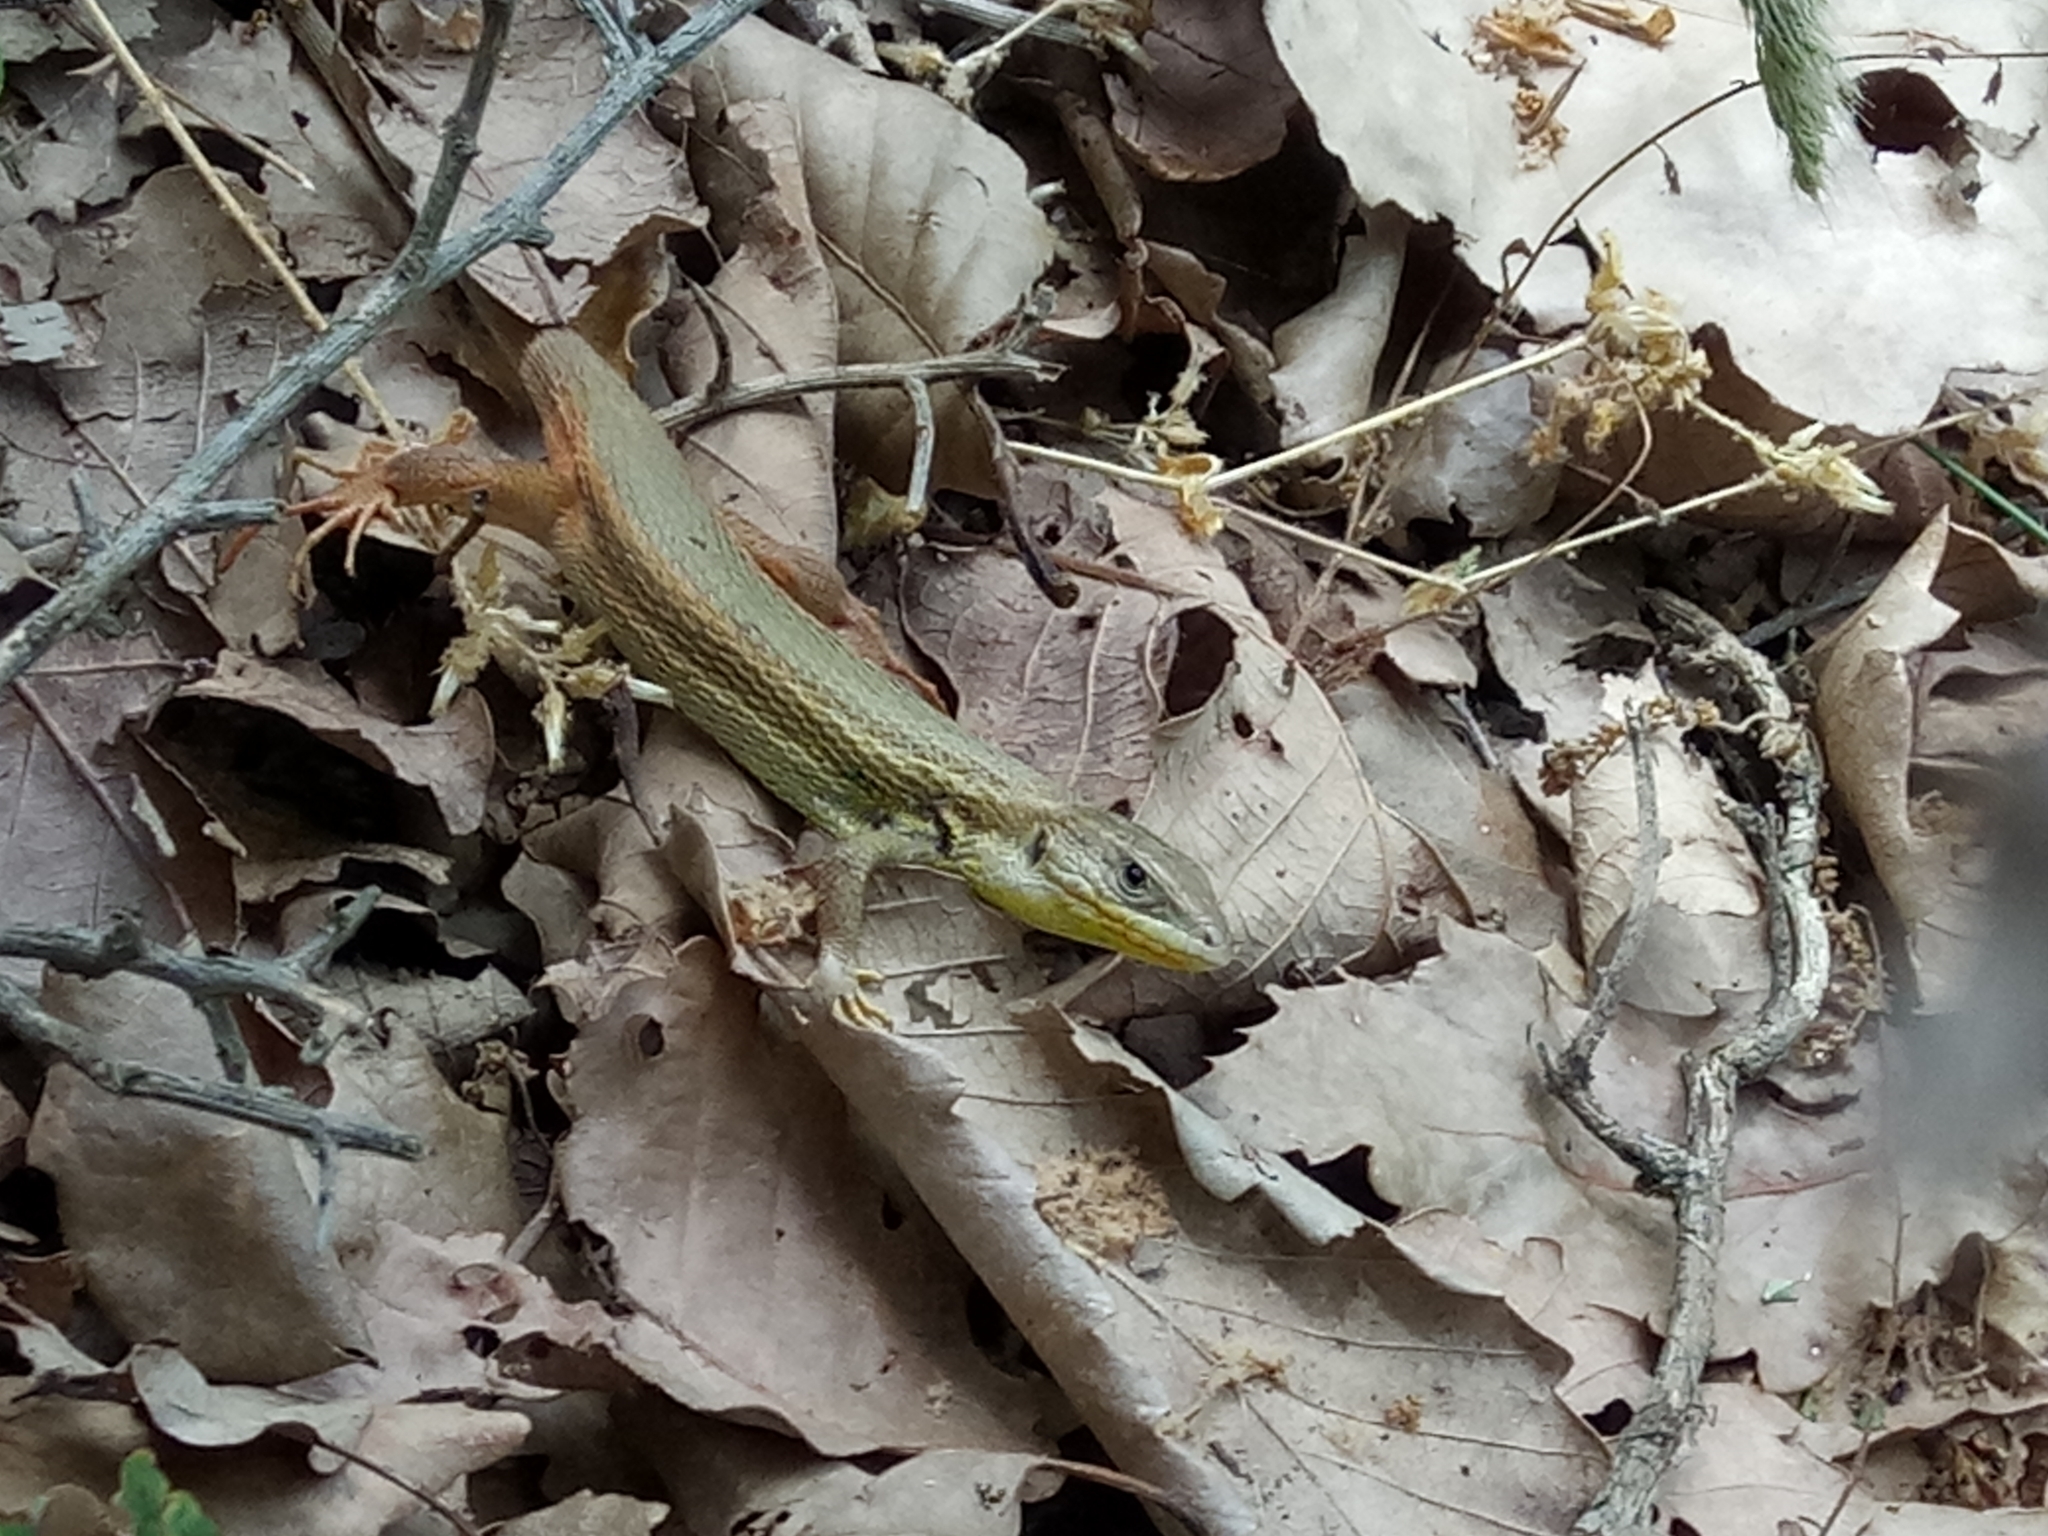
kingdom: Animalia
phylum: Chordata
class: Squamata
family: Lacertidae
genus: Psammodromus
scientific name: Psammodromus algirus
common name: Algerian psammodromus
